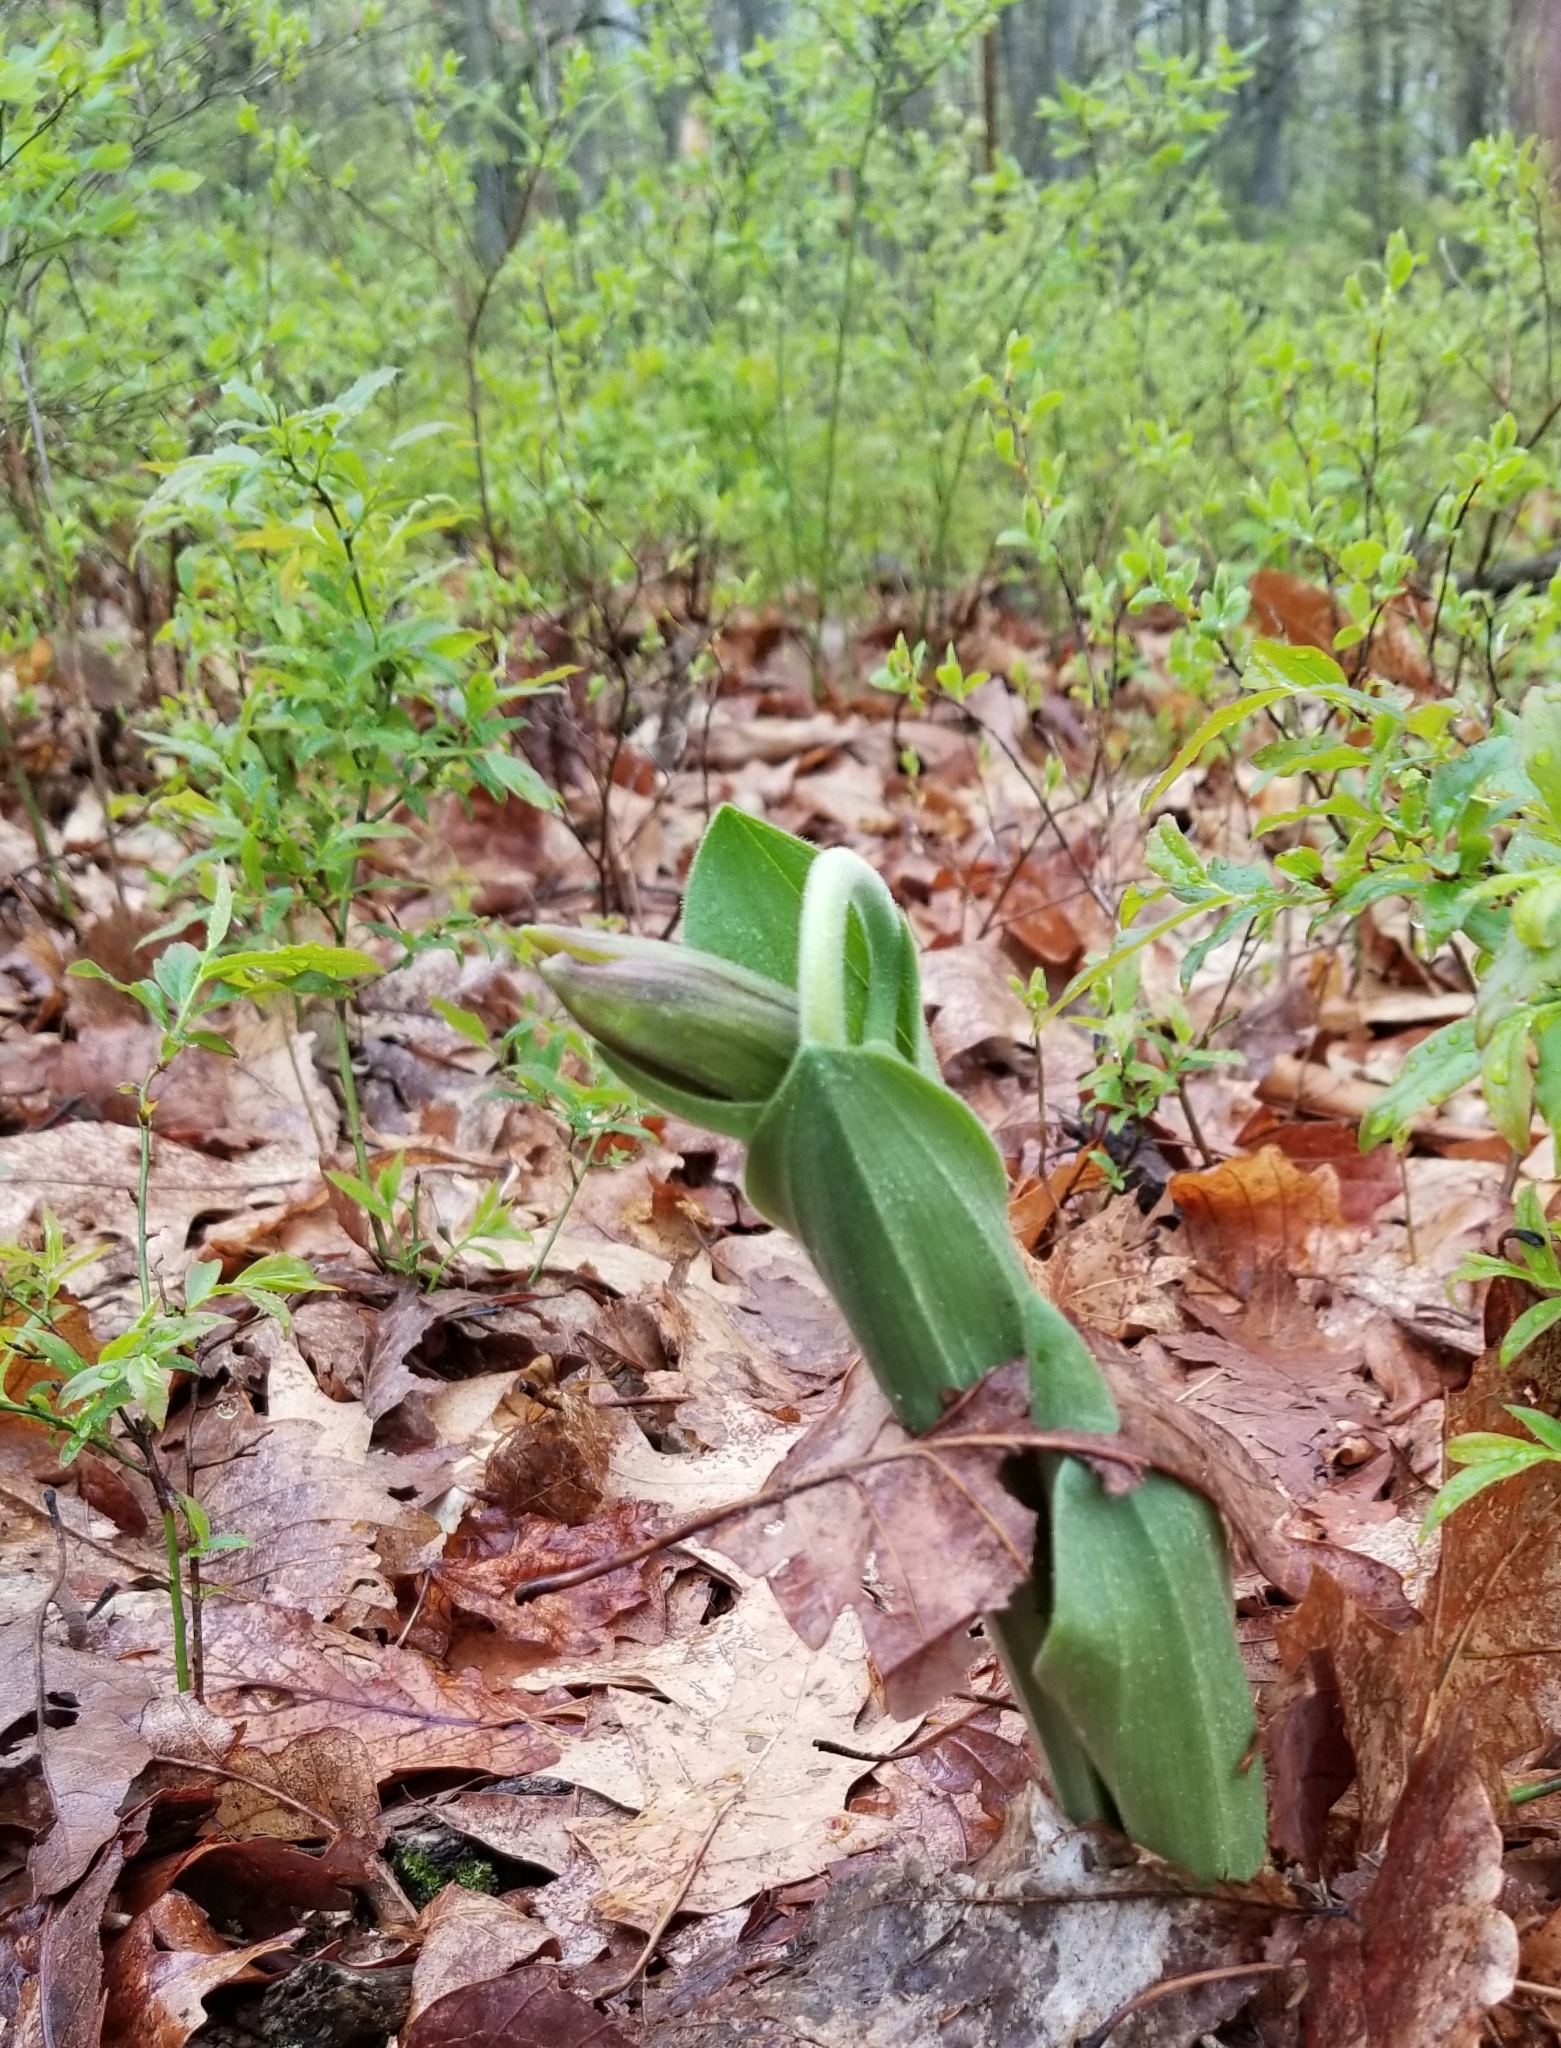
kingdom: Plantae
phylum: Tracheophyta
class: Liliopsida
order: Asparagales
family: Orchidaceae
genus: Cypripedium
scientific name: Cypripedium acaule
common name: Pink lady's-slipper
